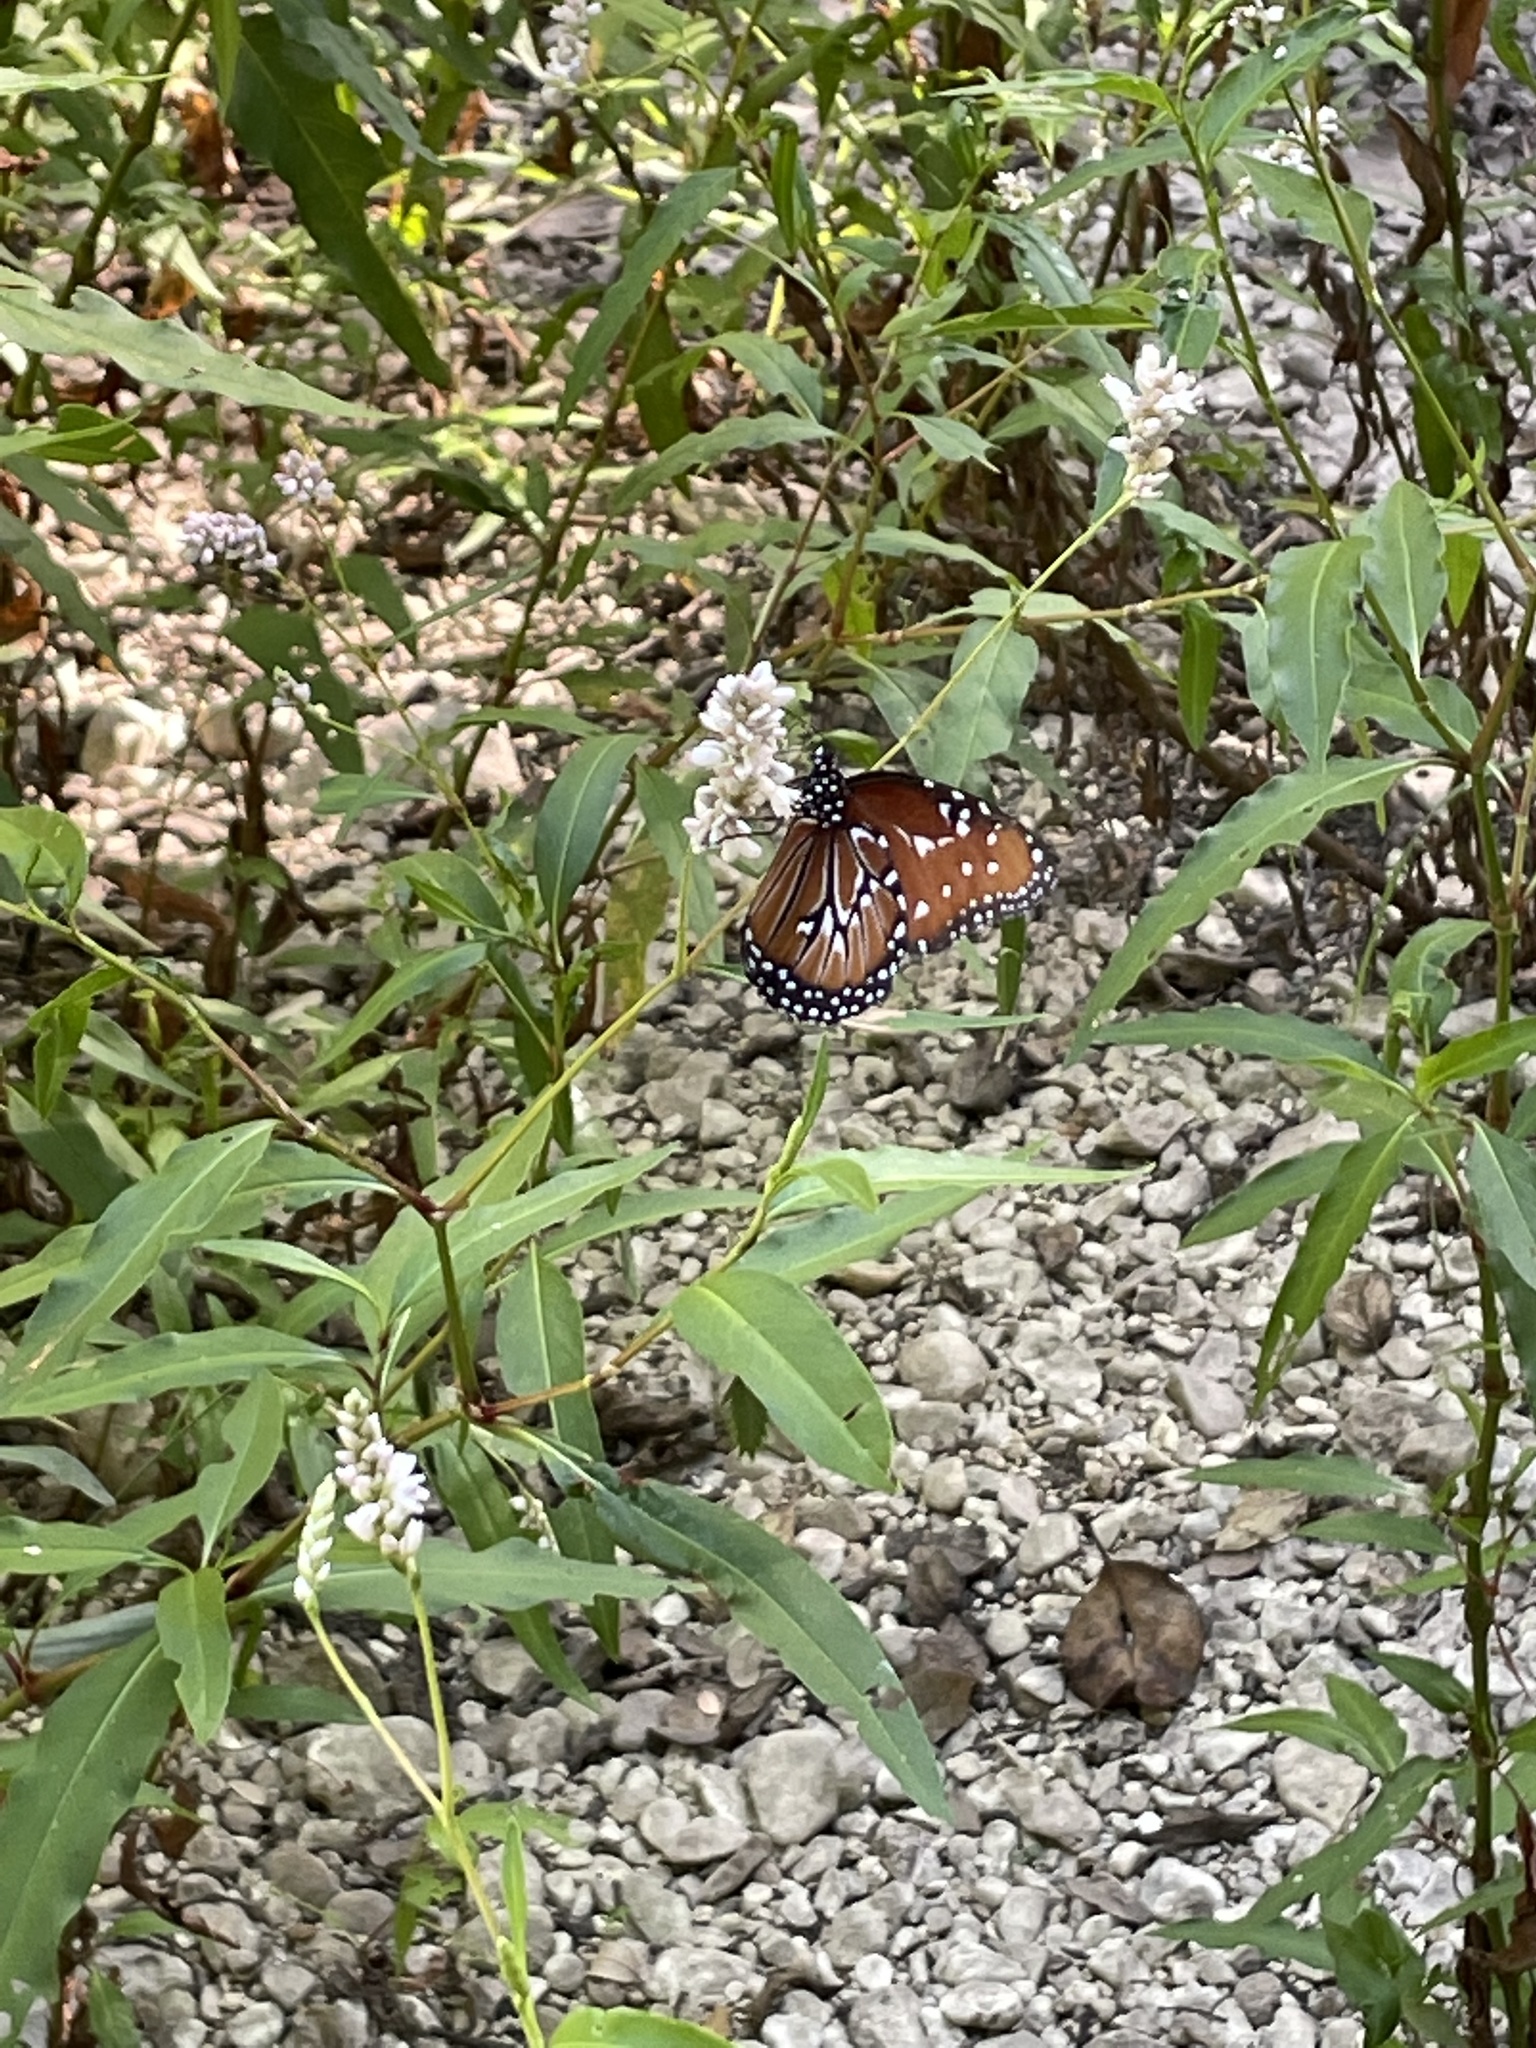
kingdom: Animalia
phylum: Arthropoda
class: Insecta
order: Lepidoptera
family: Nymphalidae
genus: Danaus
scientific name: Danaus gilippus
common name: Queen
